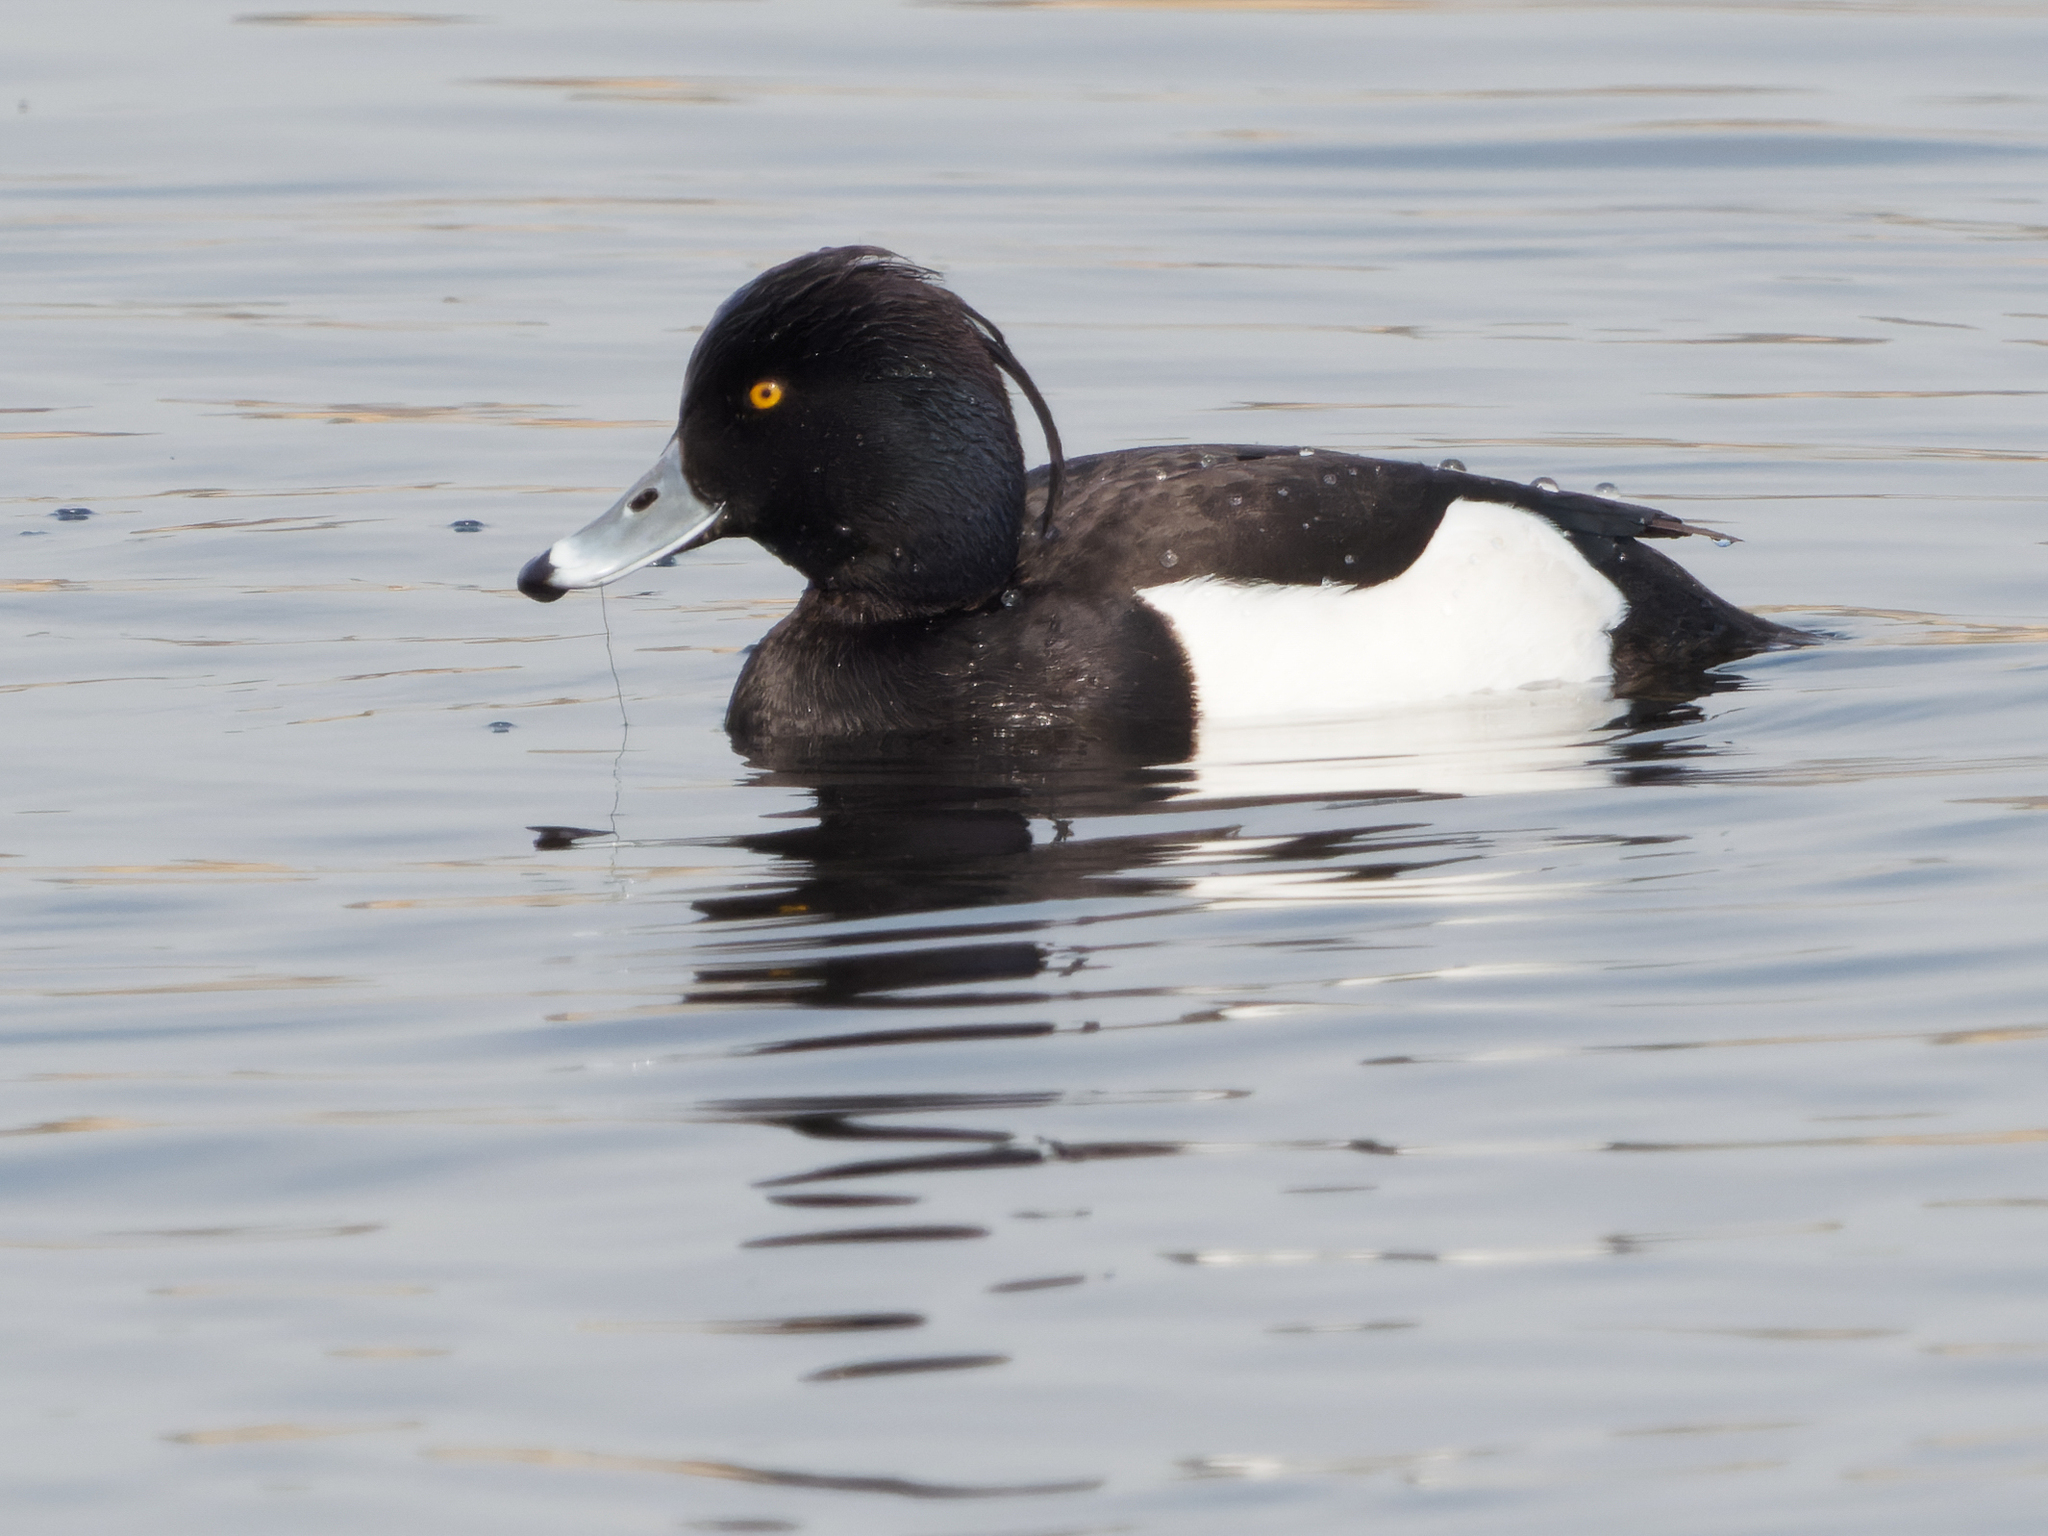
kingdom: Animalia
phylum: Chordata
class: Aves
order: Anseriformes
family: Anatidae
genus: Aythya
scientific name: Aythya fuligula
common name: Tufted duck
